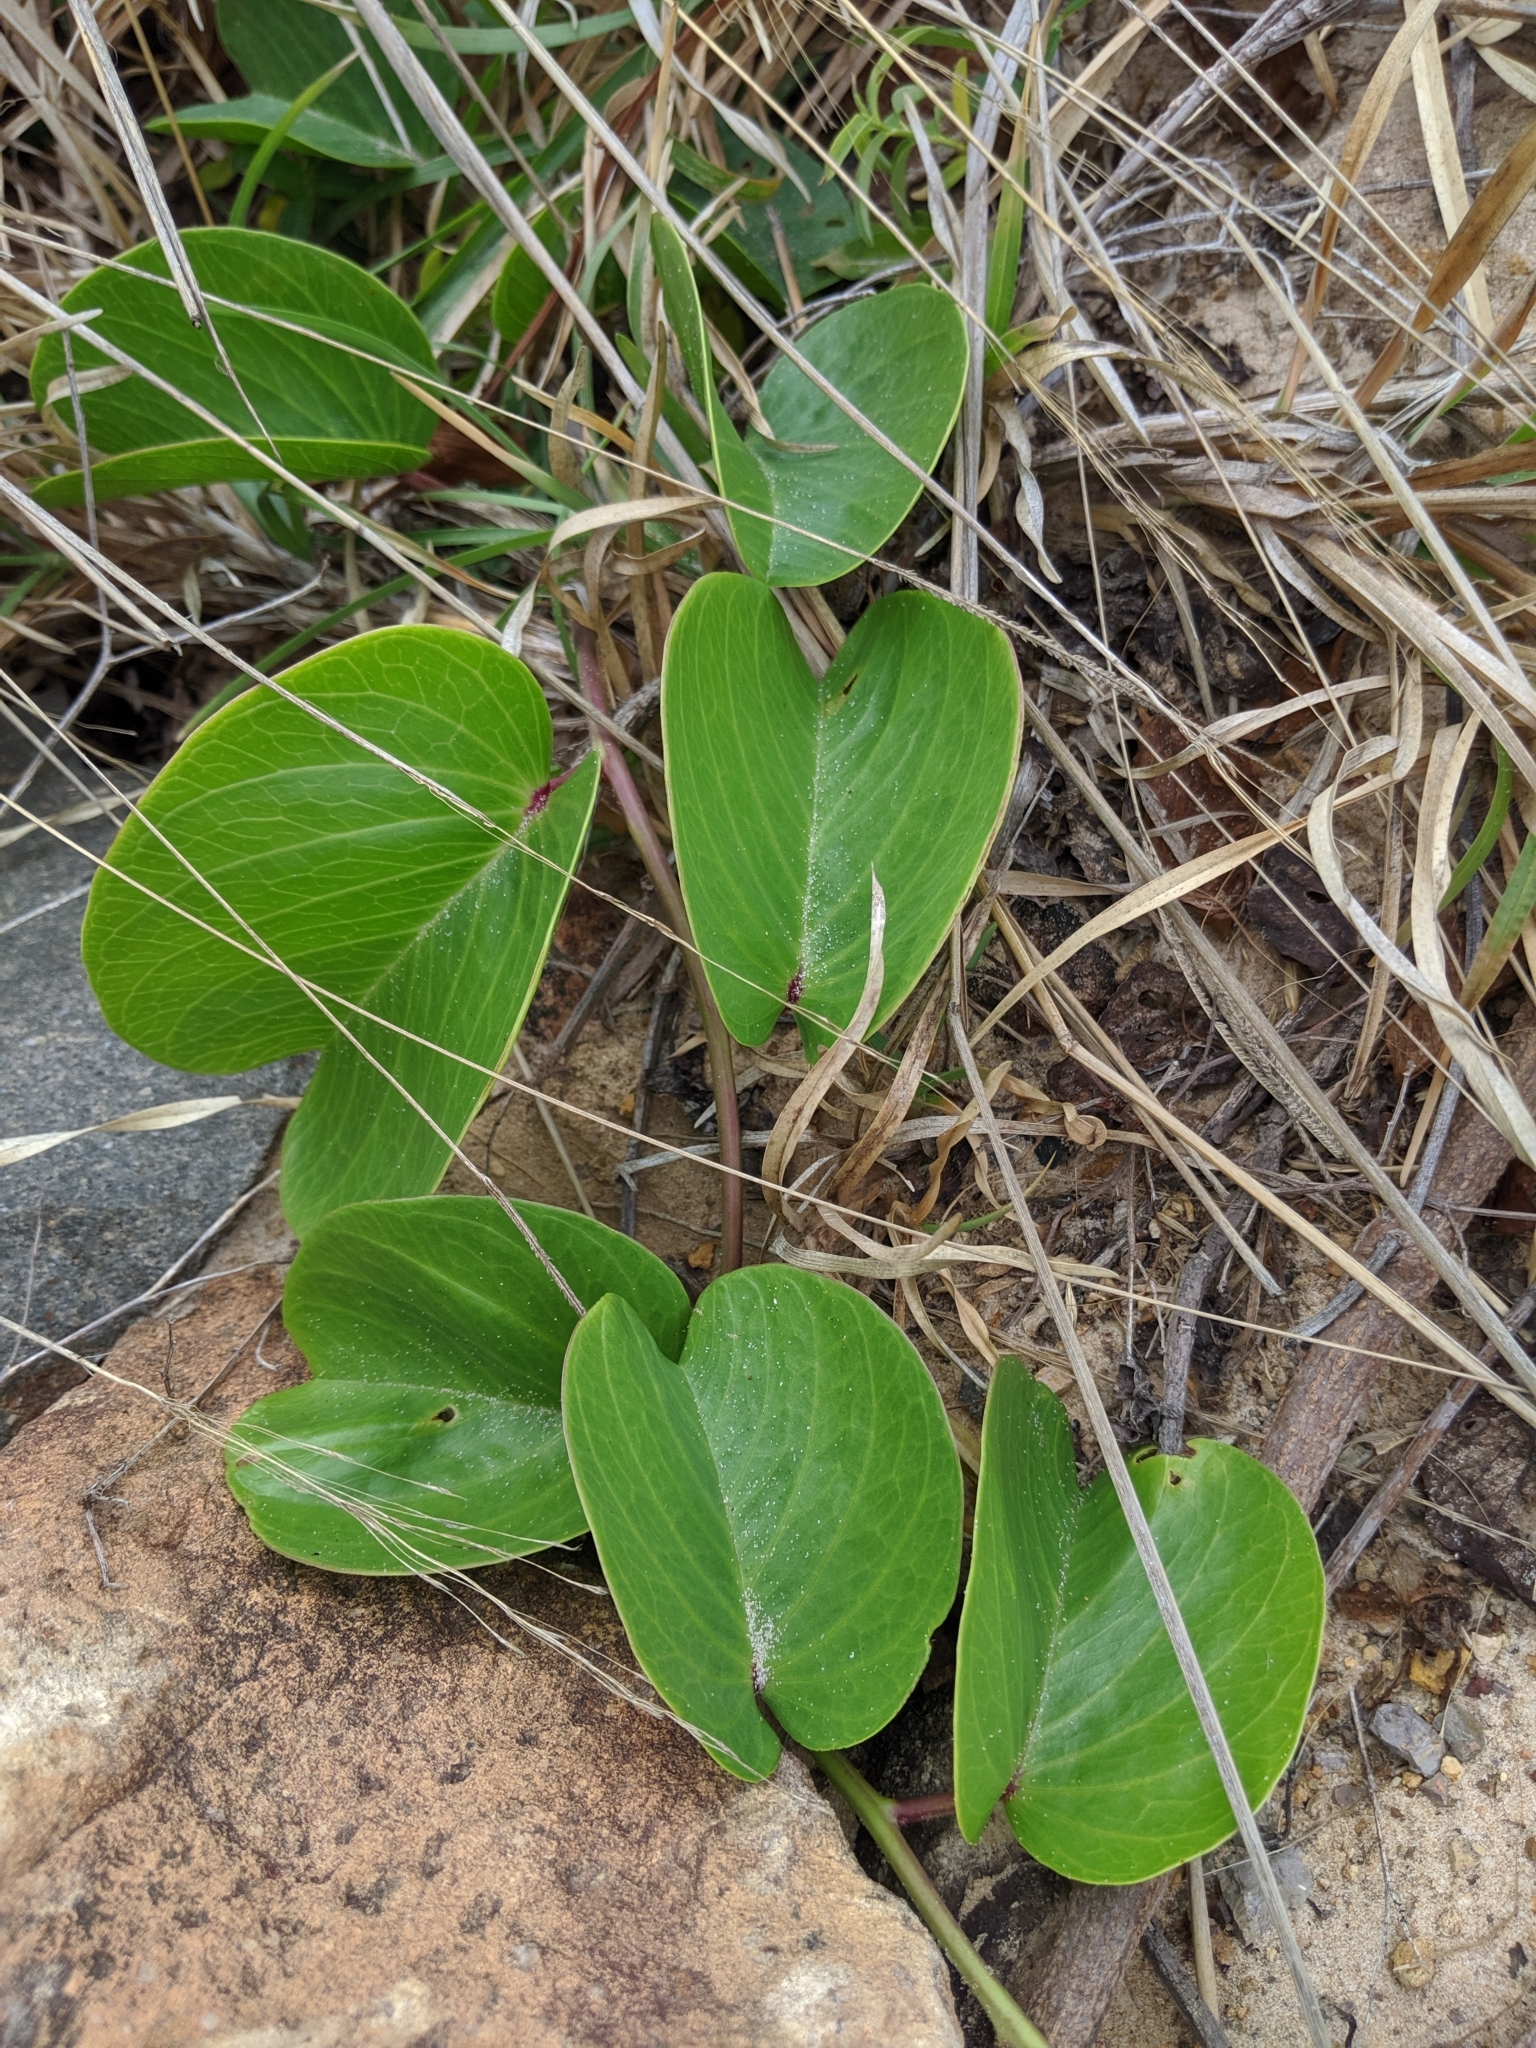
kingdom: Plantae
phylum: Tracheophyta
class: Magnoliopsida
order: Solanales
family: Convolvulaceae
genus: Ipomoea
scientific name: Ipomoea pes-caprae
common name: Beach morning glory
